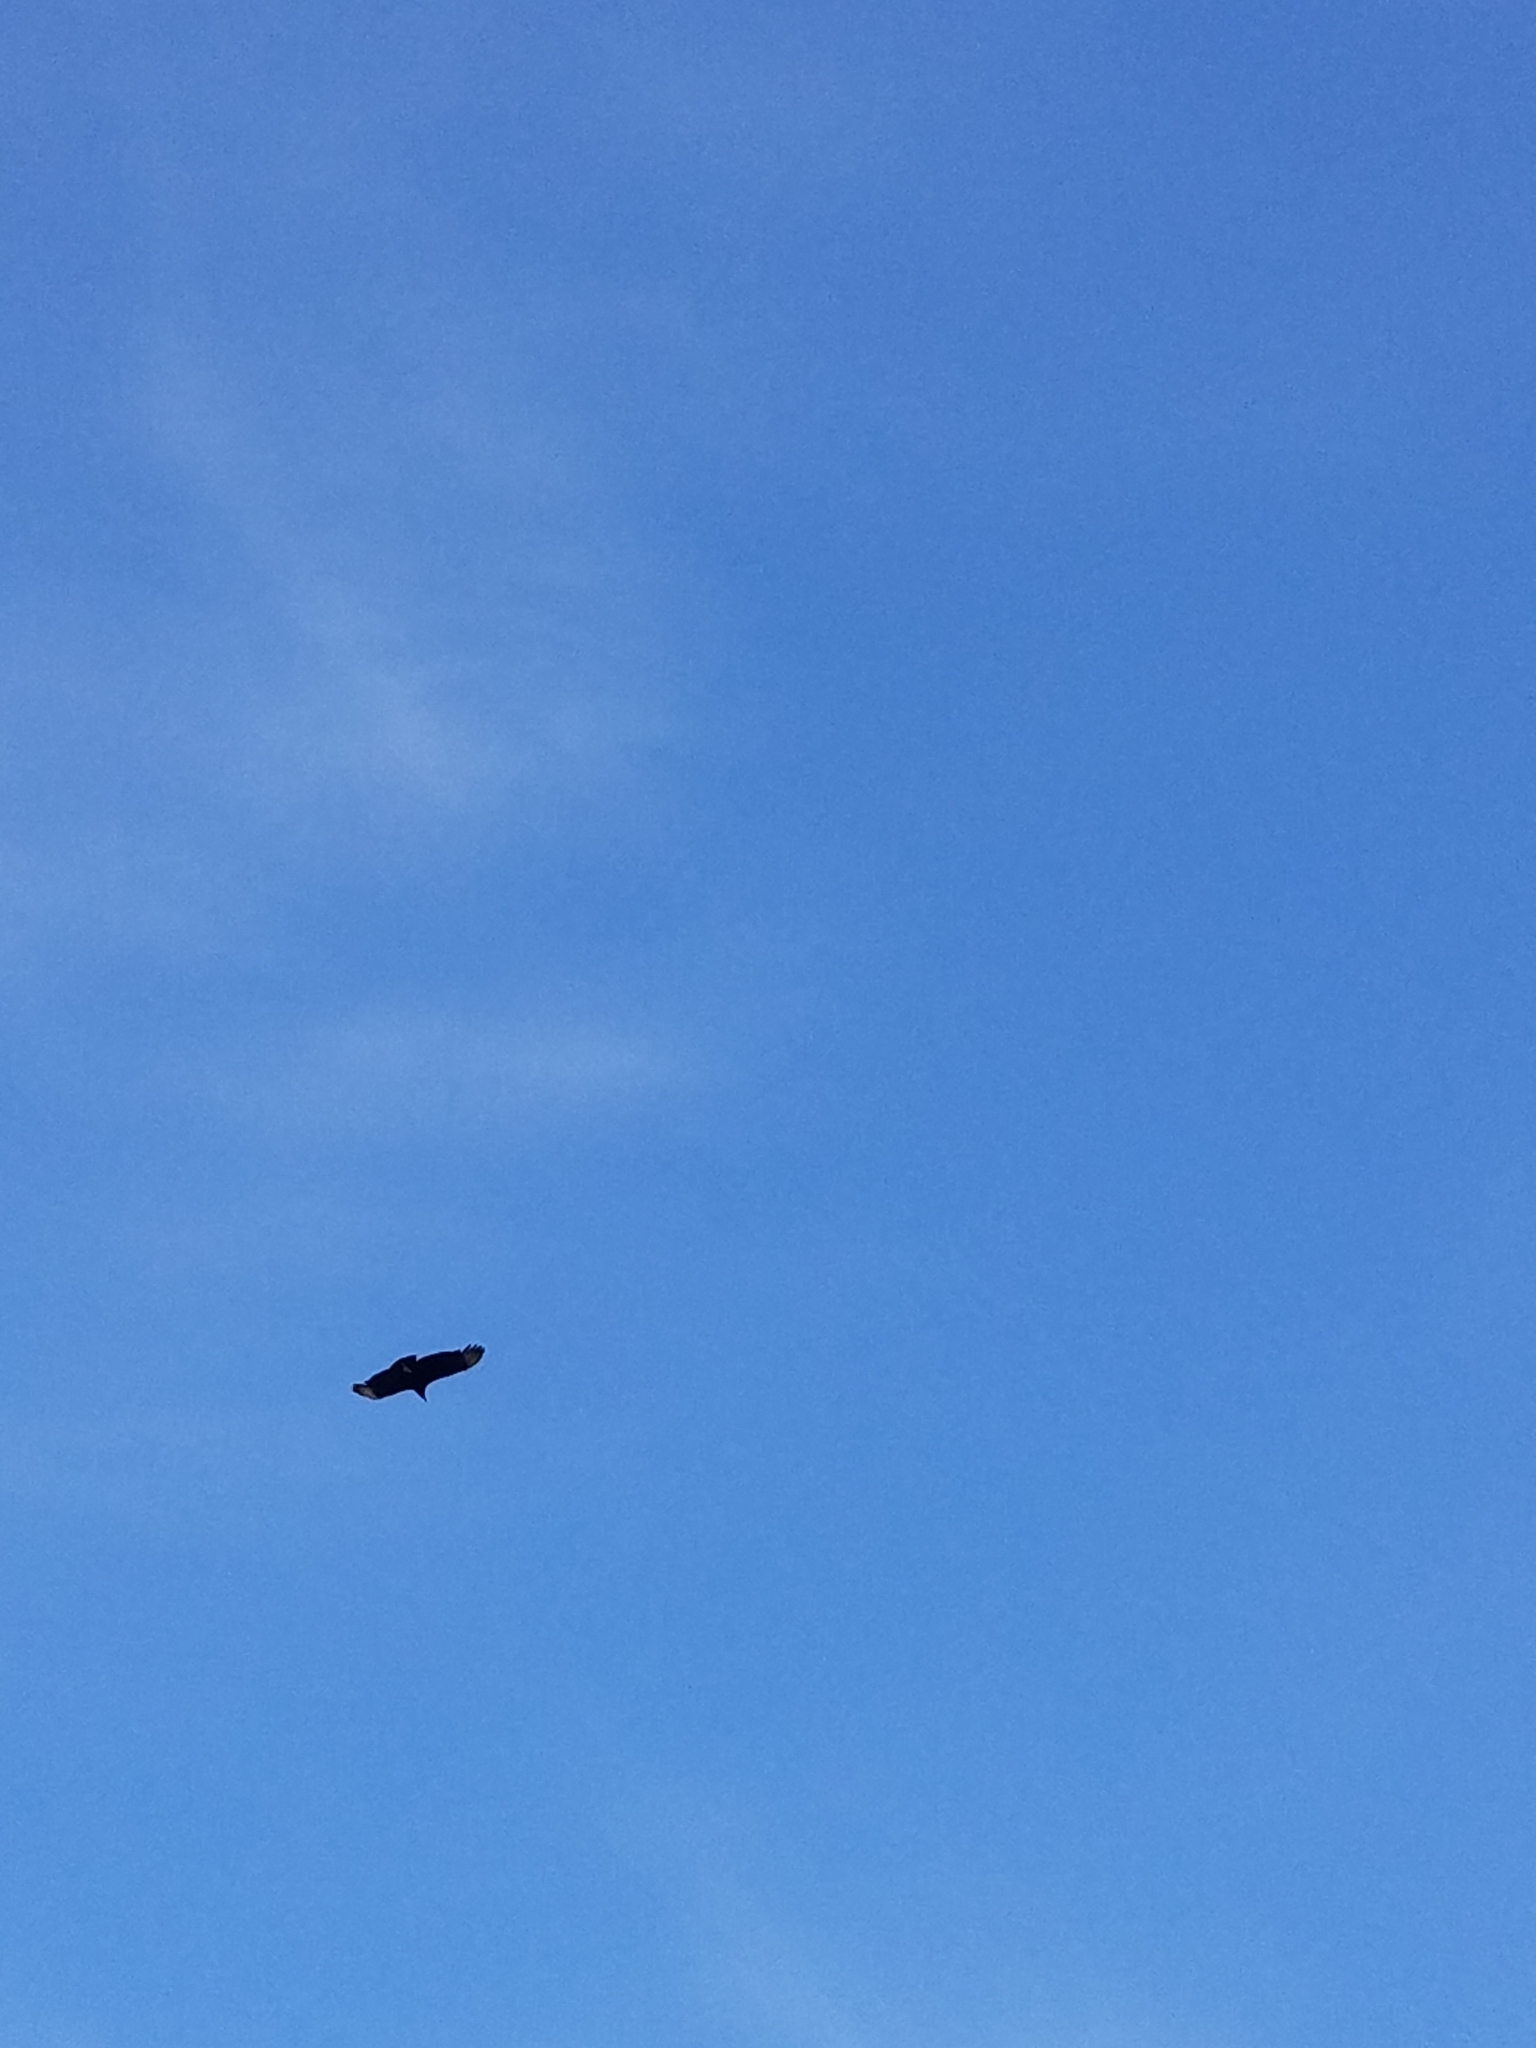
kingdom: Animalia
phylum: Chordata
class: Aves
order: Accipitriformes
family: Cathartidae
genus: Coragyps
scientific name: Coragyps atratus
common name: Black vulture
